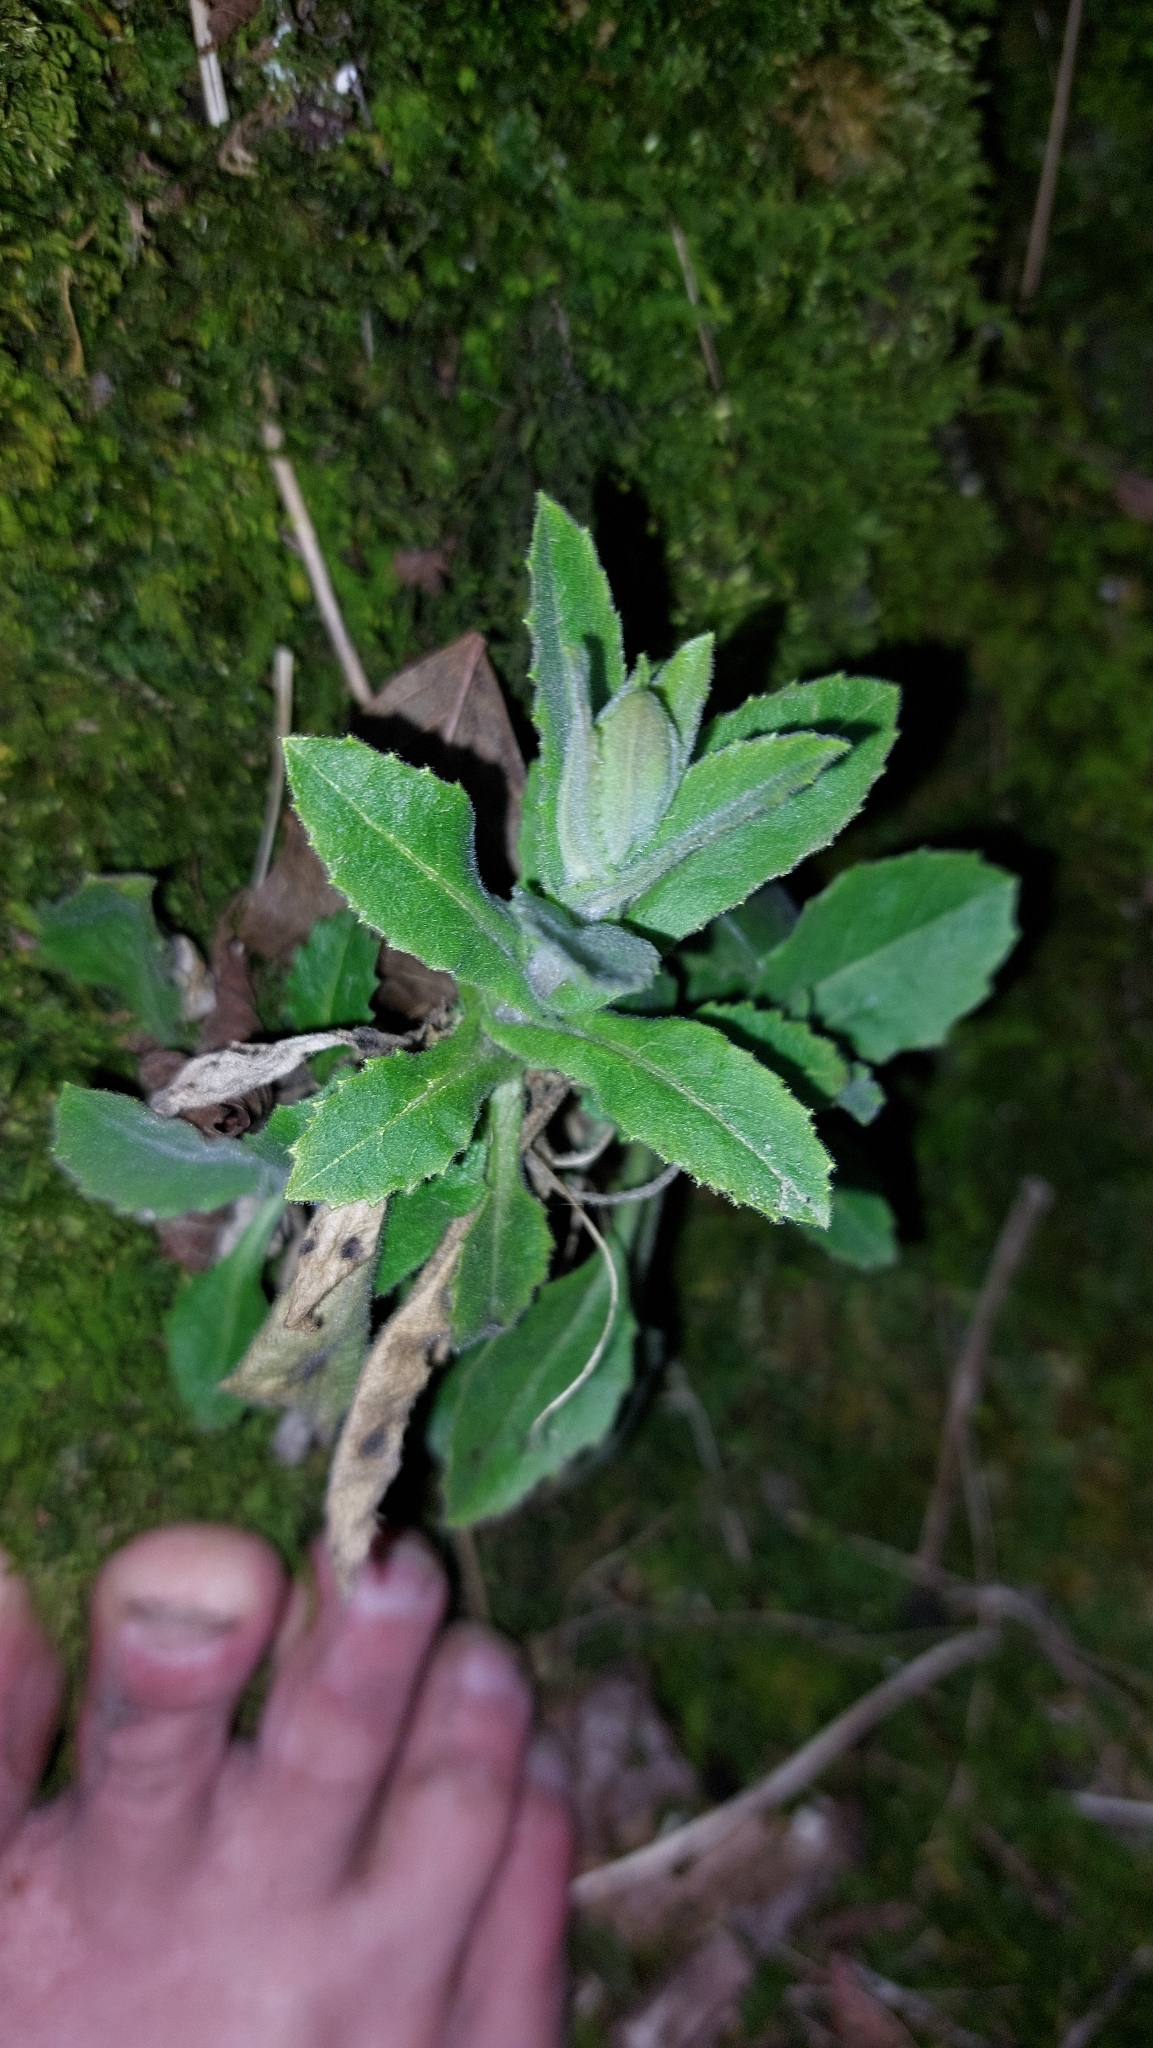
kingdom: Plantae
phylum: Tracheophyta
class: Magnoliopsida
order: Brassicales
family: Brassicaceae
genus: Pseudoturritis
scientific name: Pseudoturritis turrita
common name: Tower cress
